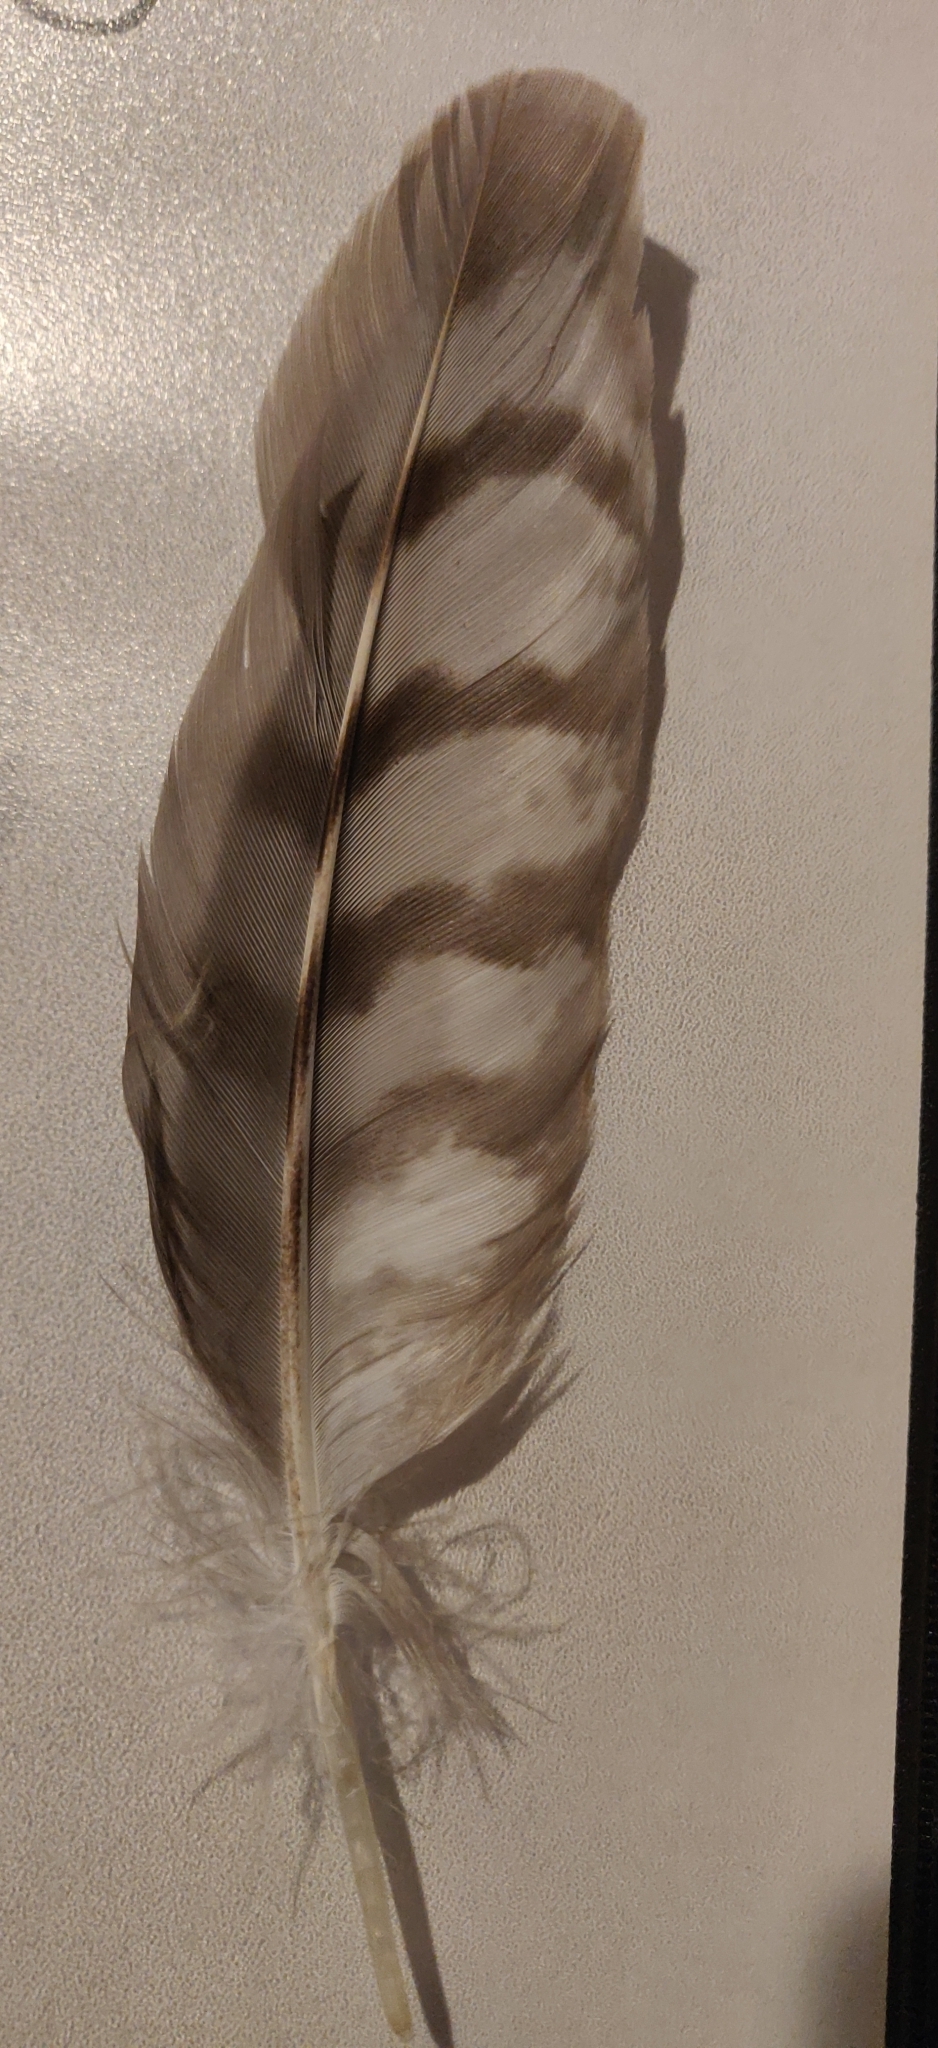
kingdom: Animalia
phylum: Chordata
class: Aves
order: Accipitriformes
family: Accipitridae
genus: Accipiter
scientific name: Accipiter cooperii
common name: Cooper's hawk
